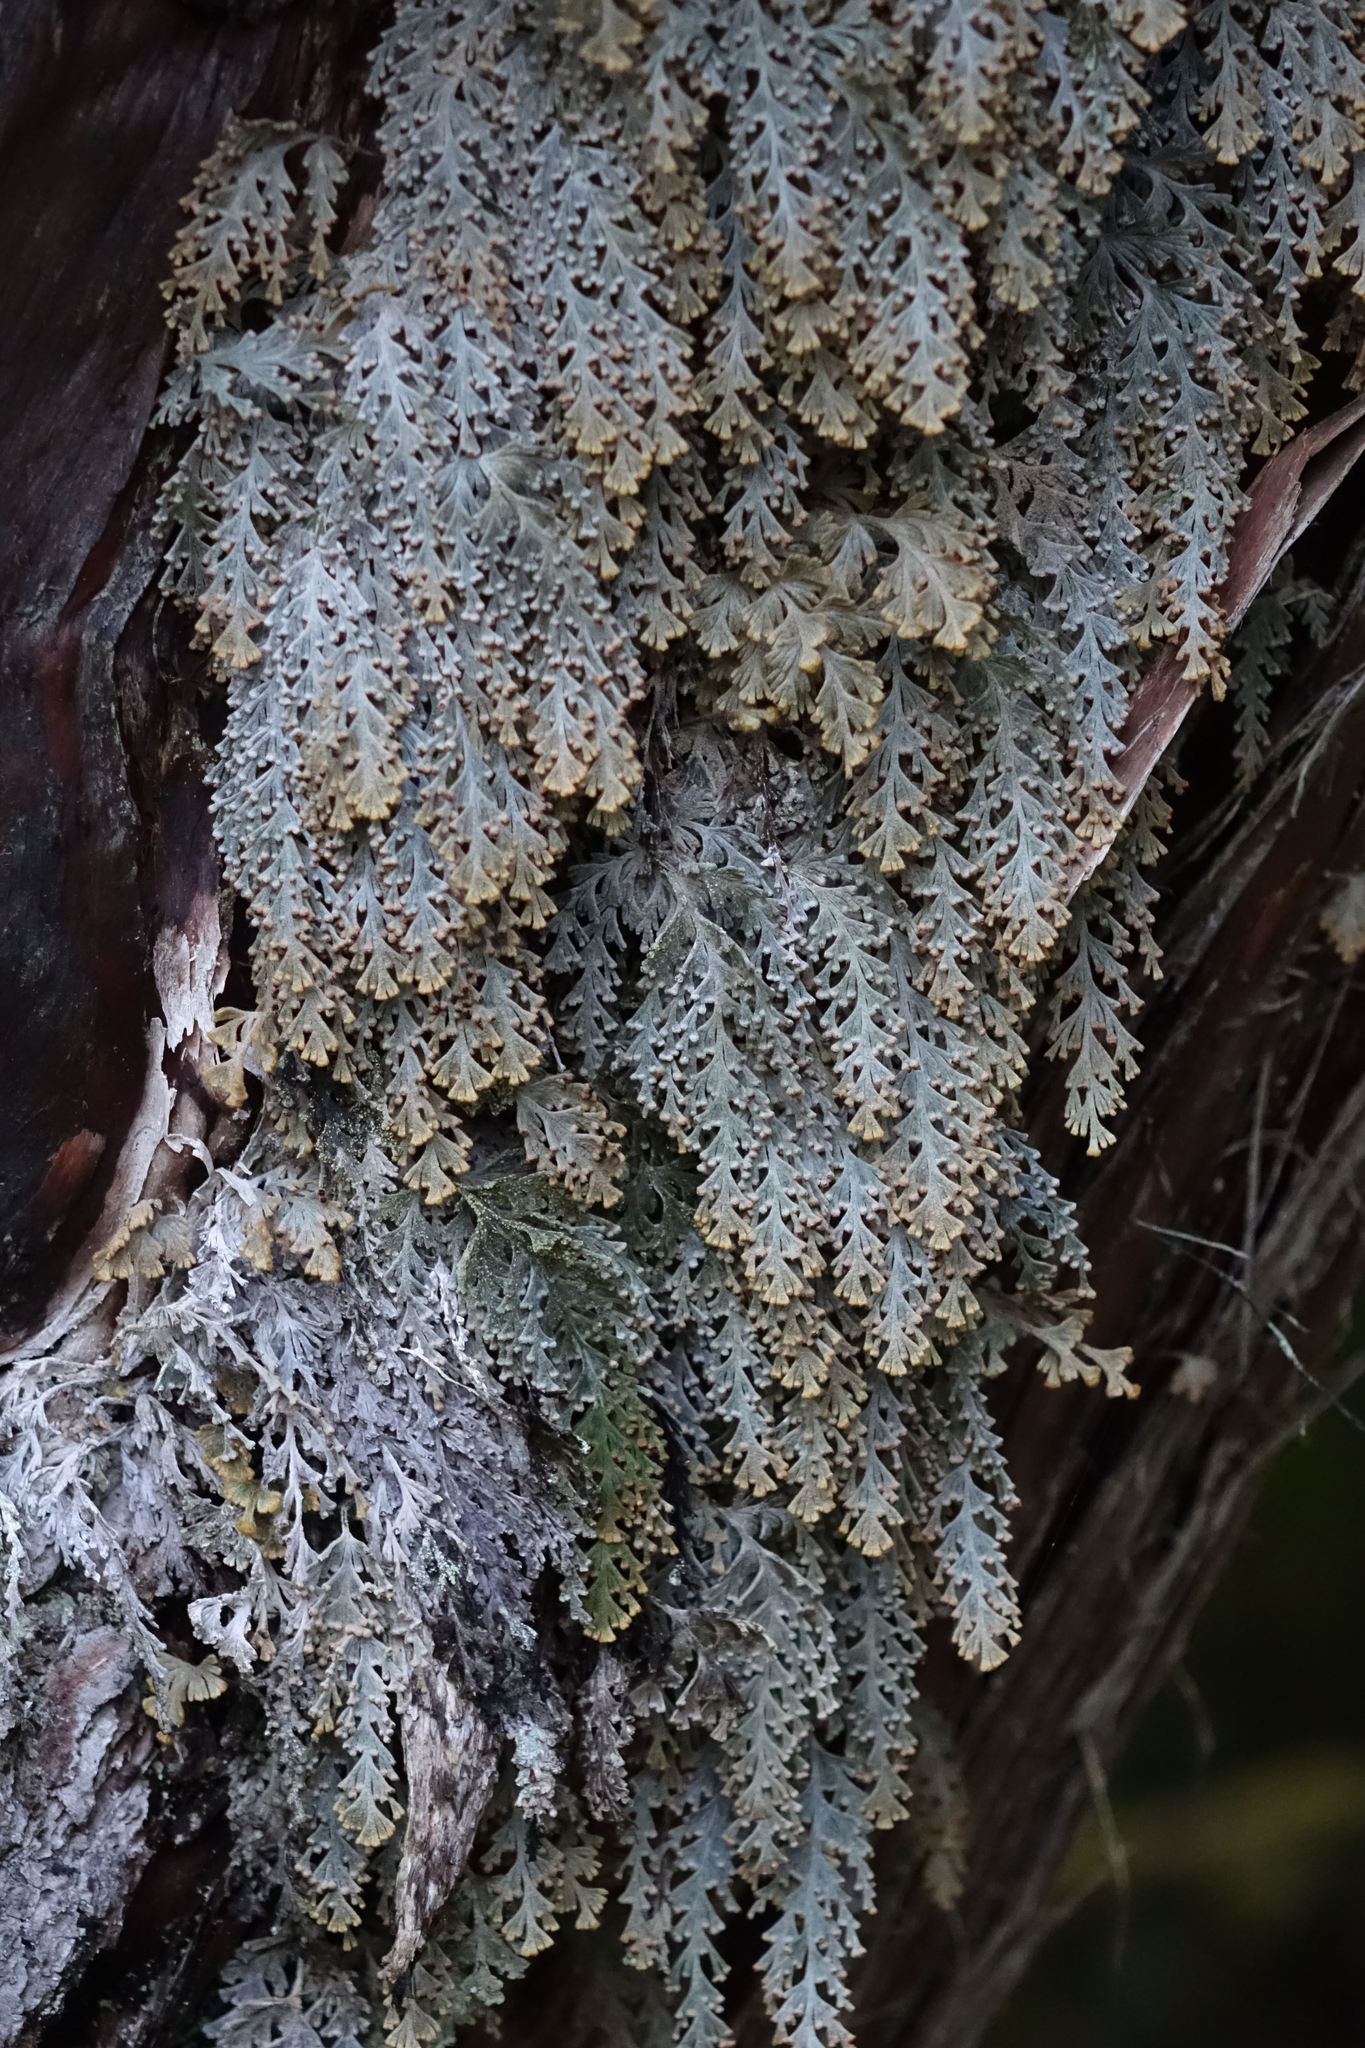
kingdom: Plantae
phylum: Tracheophyta
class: Polypodiopsida
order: Hymenophyllales
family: Hymenophyllaceae
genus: Hymenophyllum
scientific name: Hymenophyllum malingii
